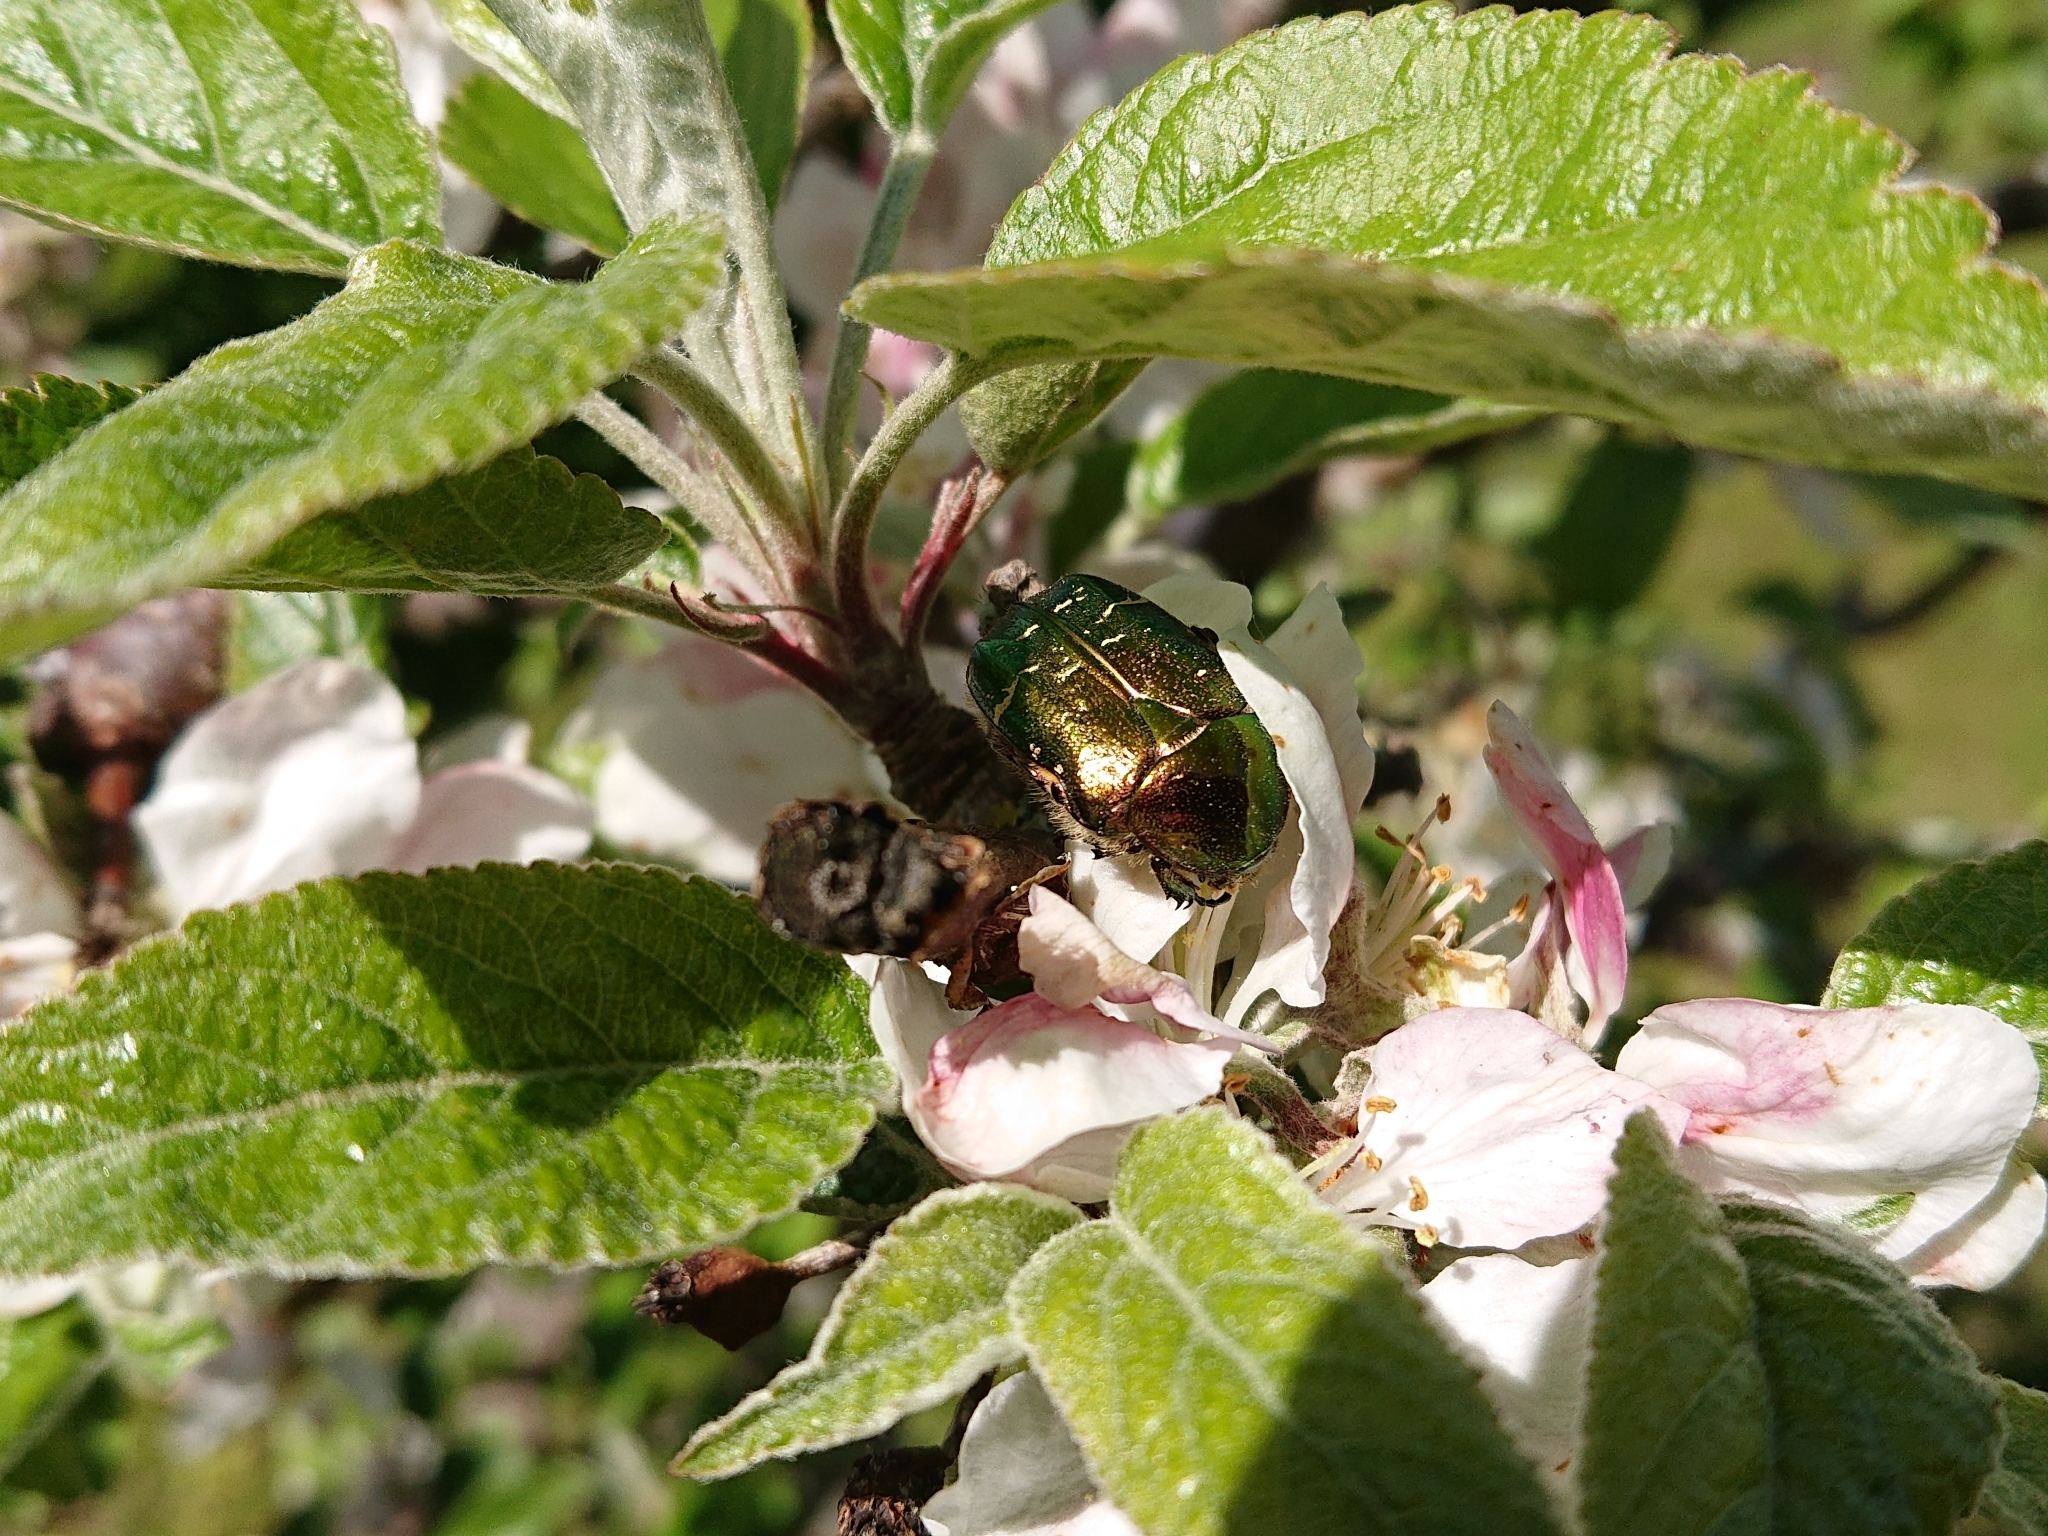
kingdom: Animalia
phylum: Arthropoda
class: Insecta
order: Coleoptera
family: Scarabaeidae
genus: Cetonia
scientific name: Cetonia aurata
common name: Rose chafer
